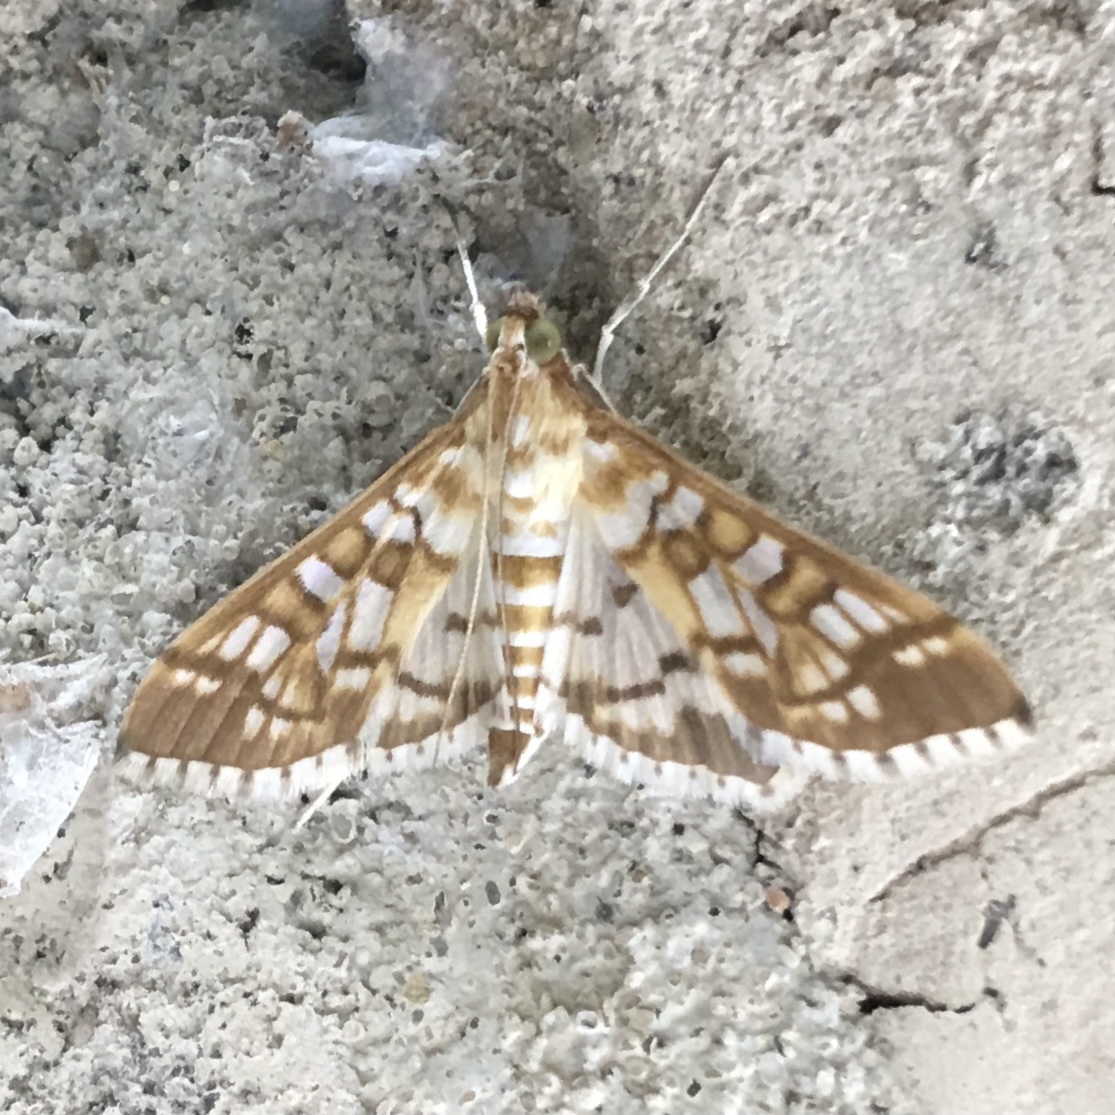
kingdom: Animalia
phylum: Arthropoda
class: Insecta
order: Lepidoptera
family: Crambidae
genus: Epipagis
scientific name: Epipagis fenestralis
